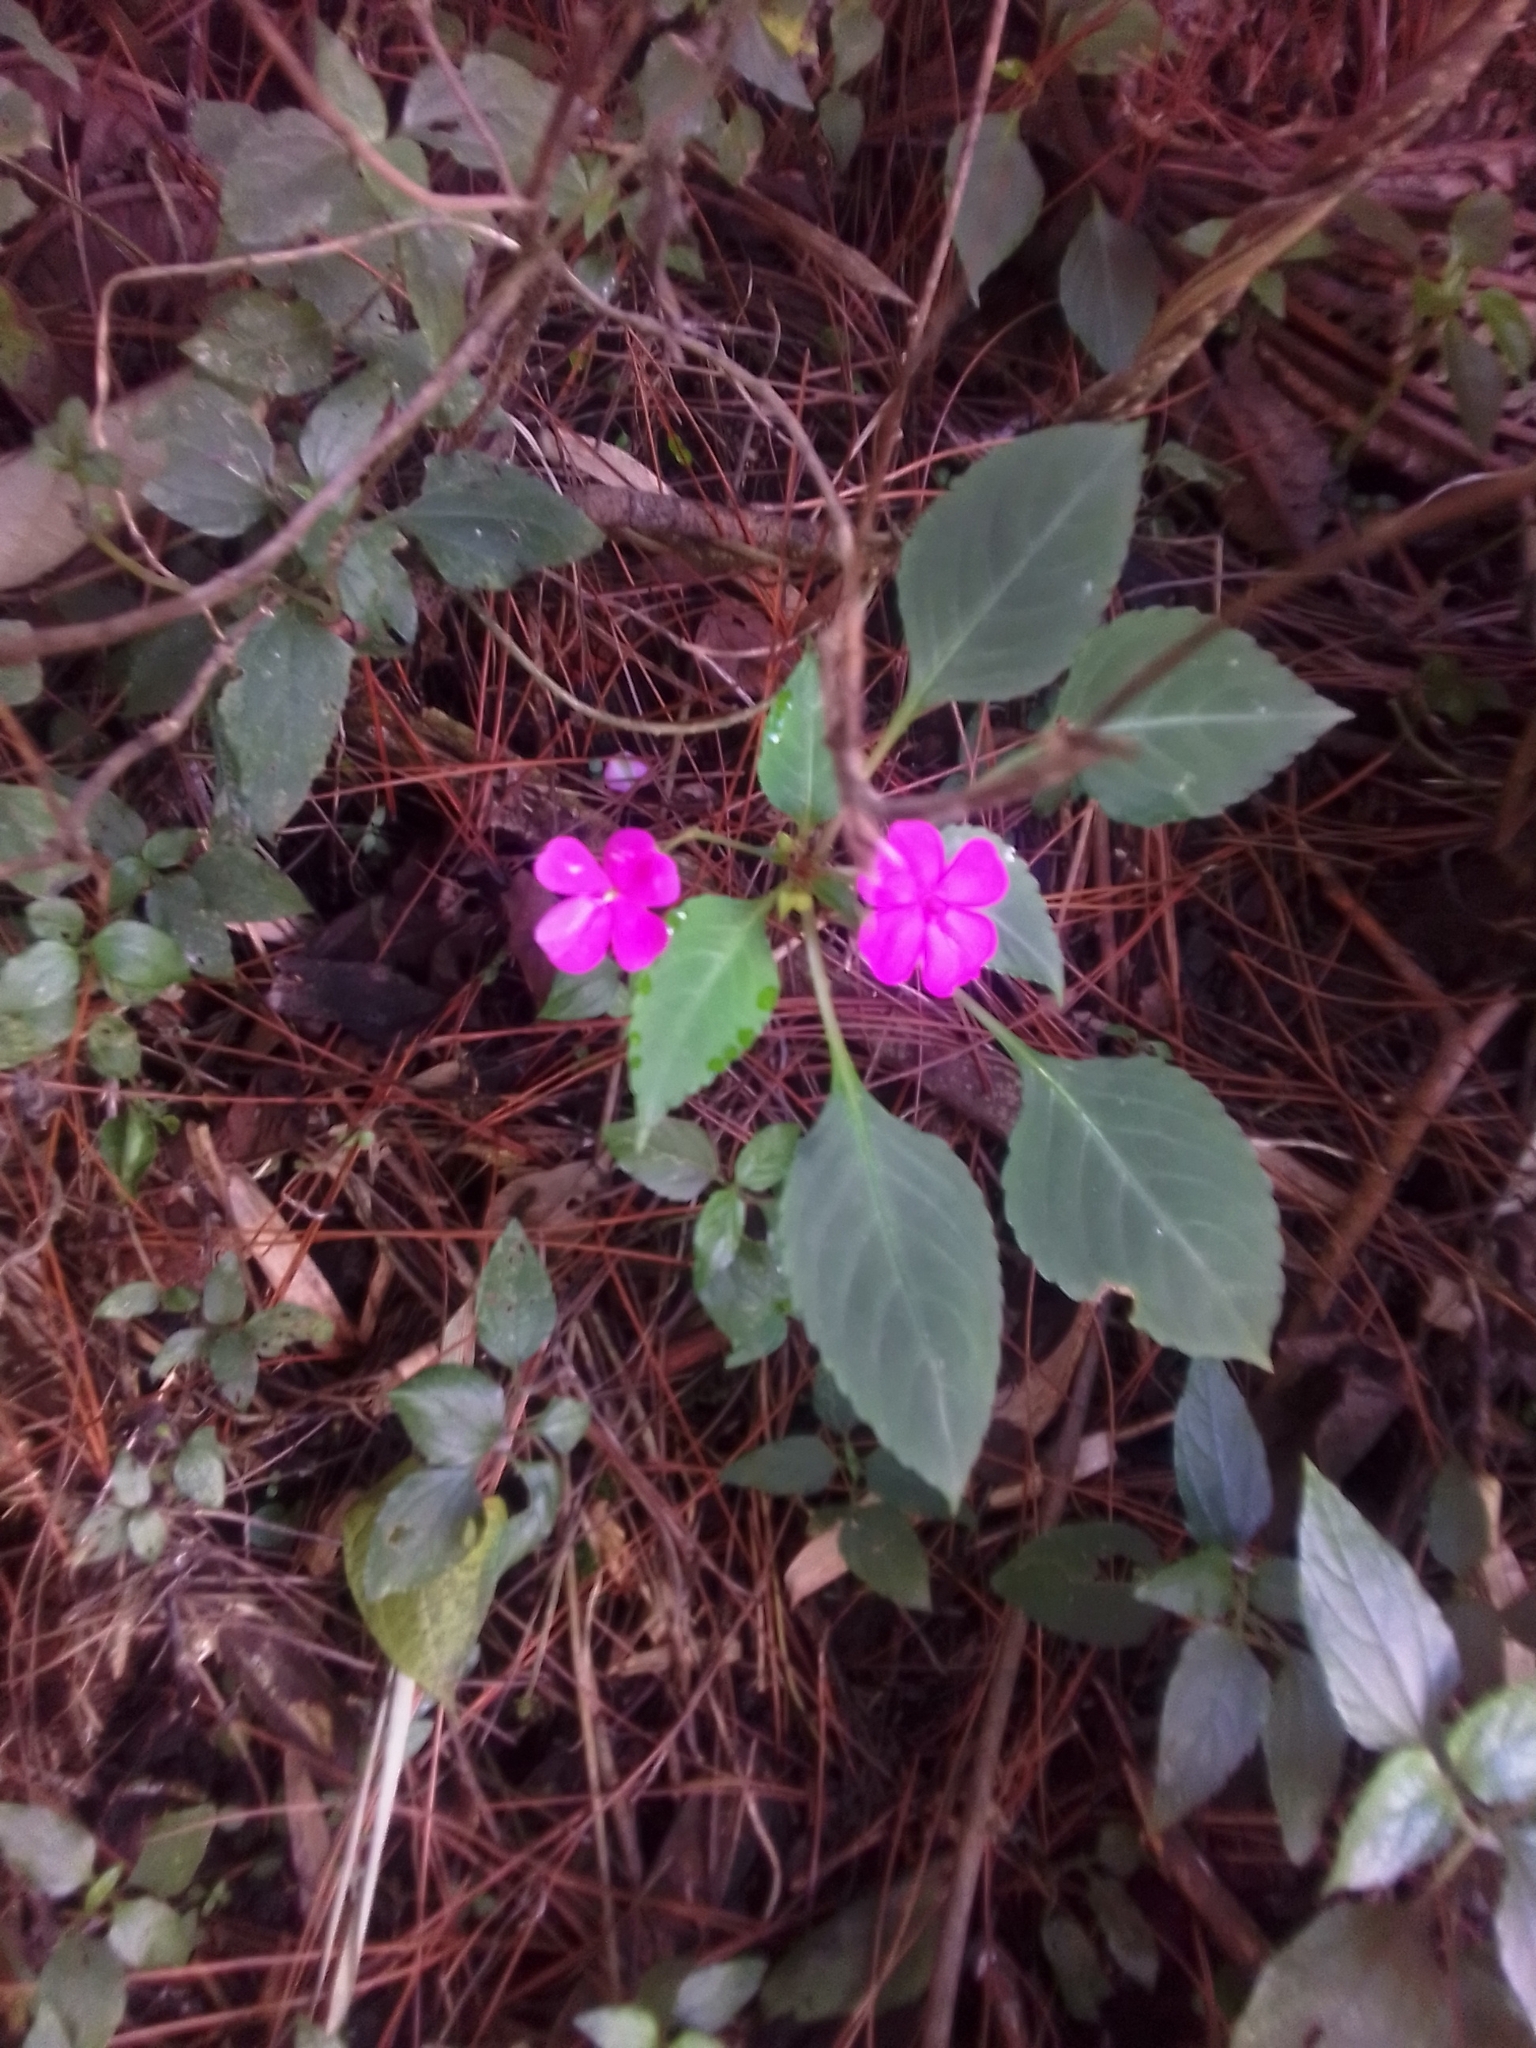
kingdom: Plantae
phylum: Tracheophyta
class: Magnoliopsida
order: Ericales
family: Balsaminaceae
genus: Impatiens
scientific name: Impatiens walleriana
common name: Buzzy lizzy
